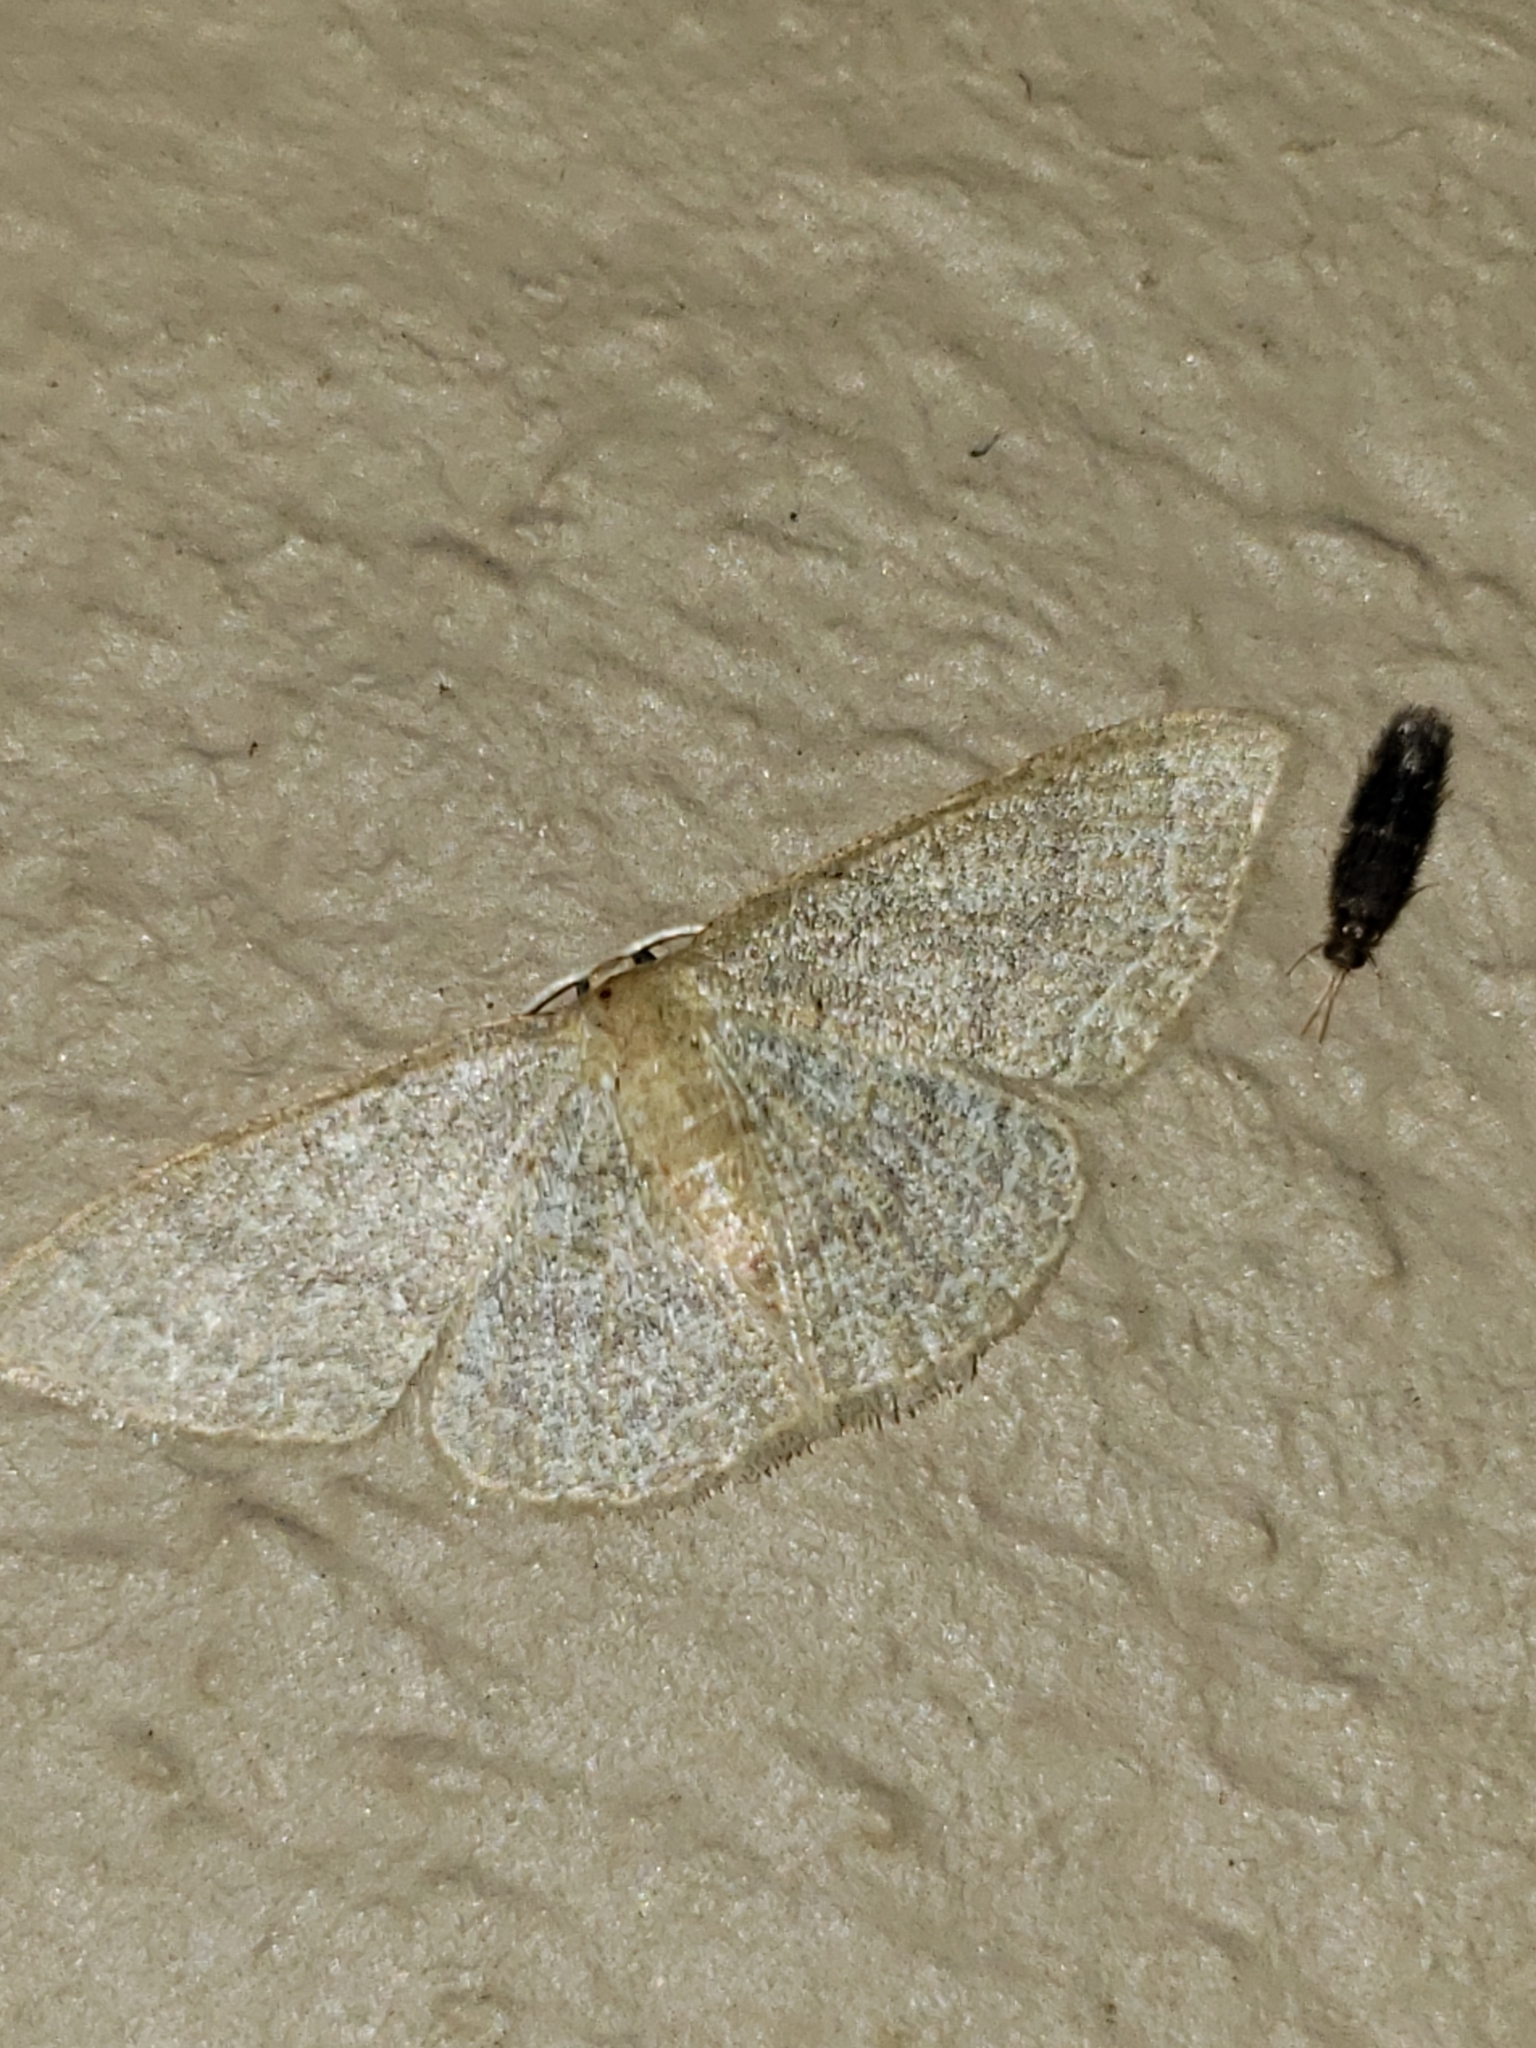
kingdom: Animalia
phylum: Arthropoda
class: Insecta
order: Lepidoptera
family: Geometridae
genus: Pleuroprucha
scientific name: Pleuroprucha insulsaria
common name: Common tan wave
